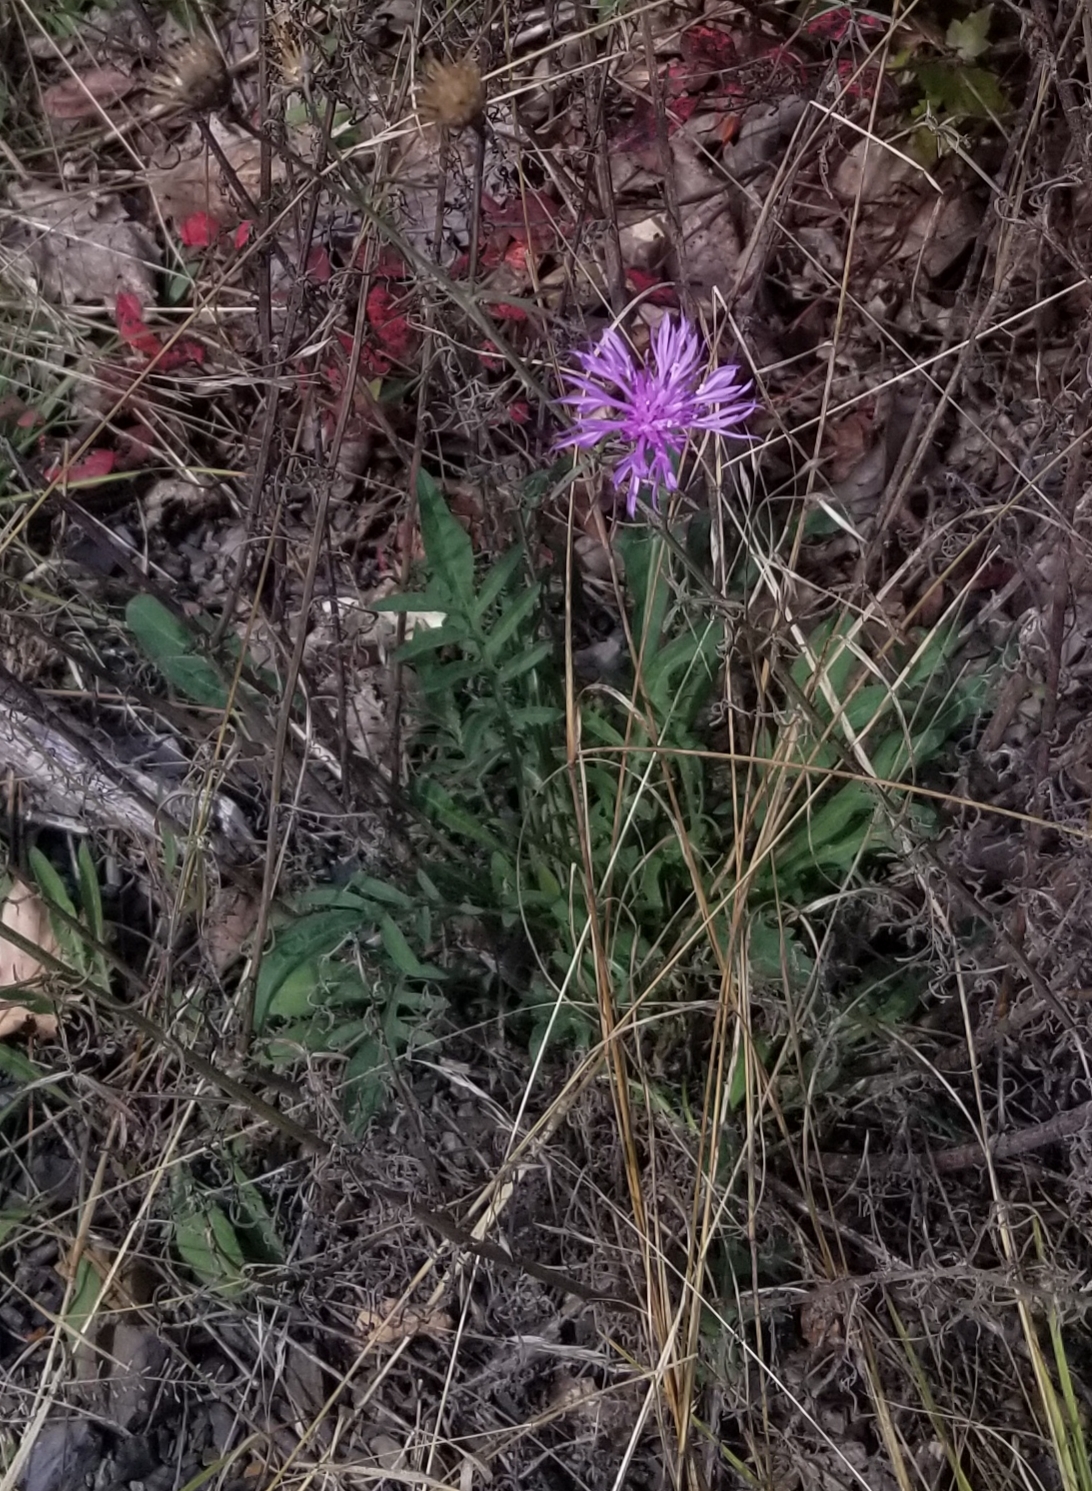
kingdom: Plantae
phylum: Tracheophyta
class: Magnoliopsida
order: Asterales
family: Asteraceae
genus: Centaurea
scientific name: Centaurea stoebe
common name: Spotted knapweed
